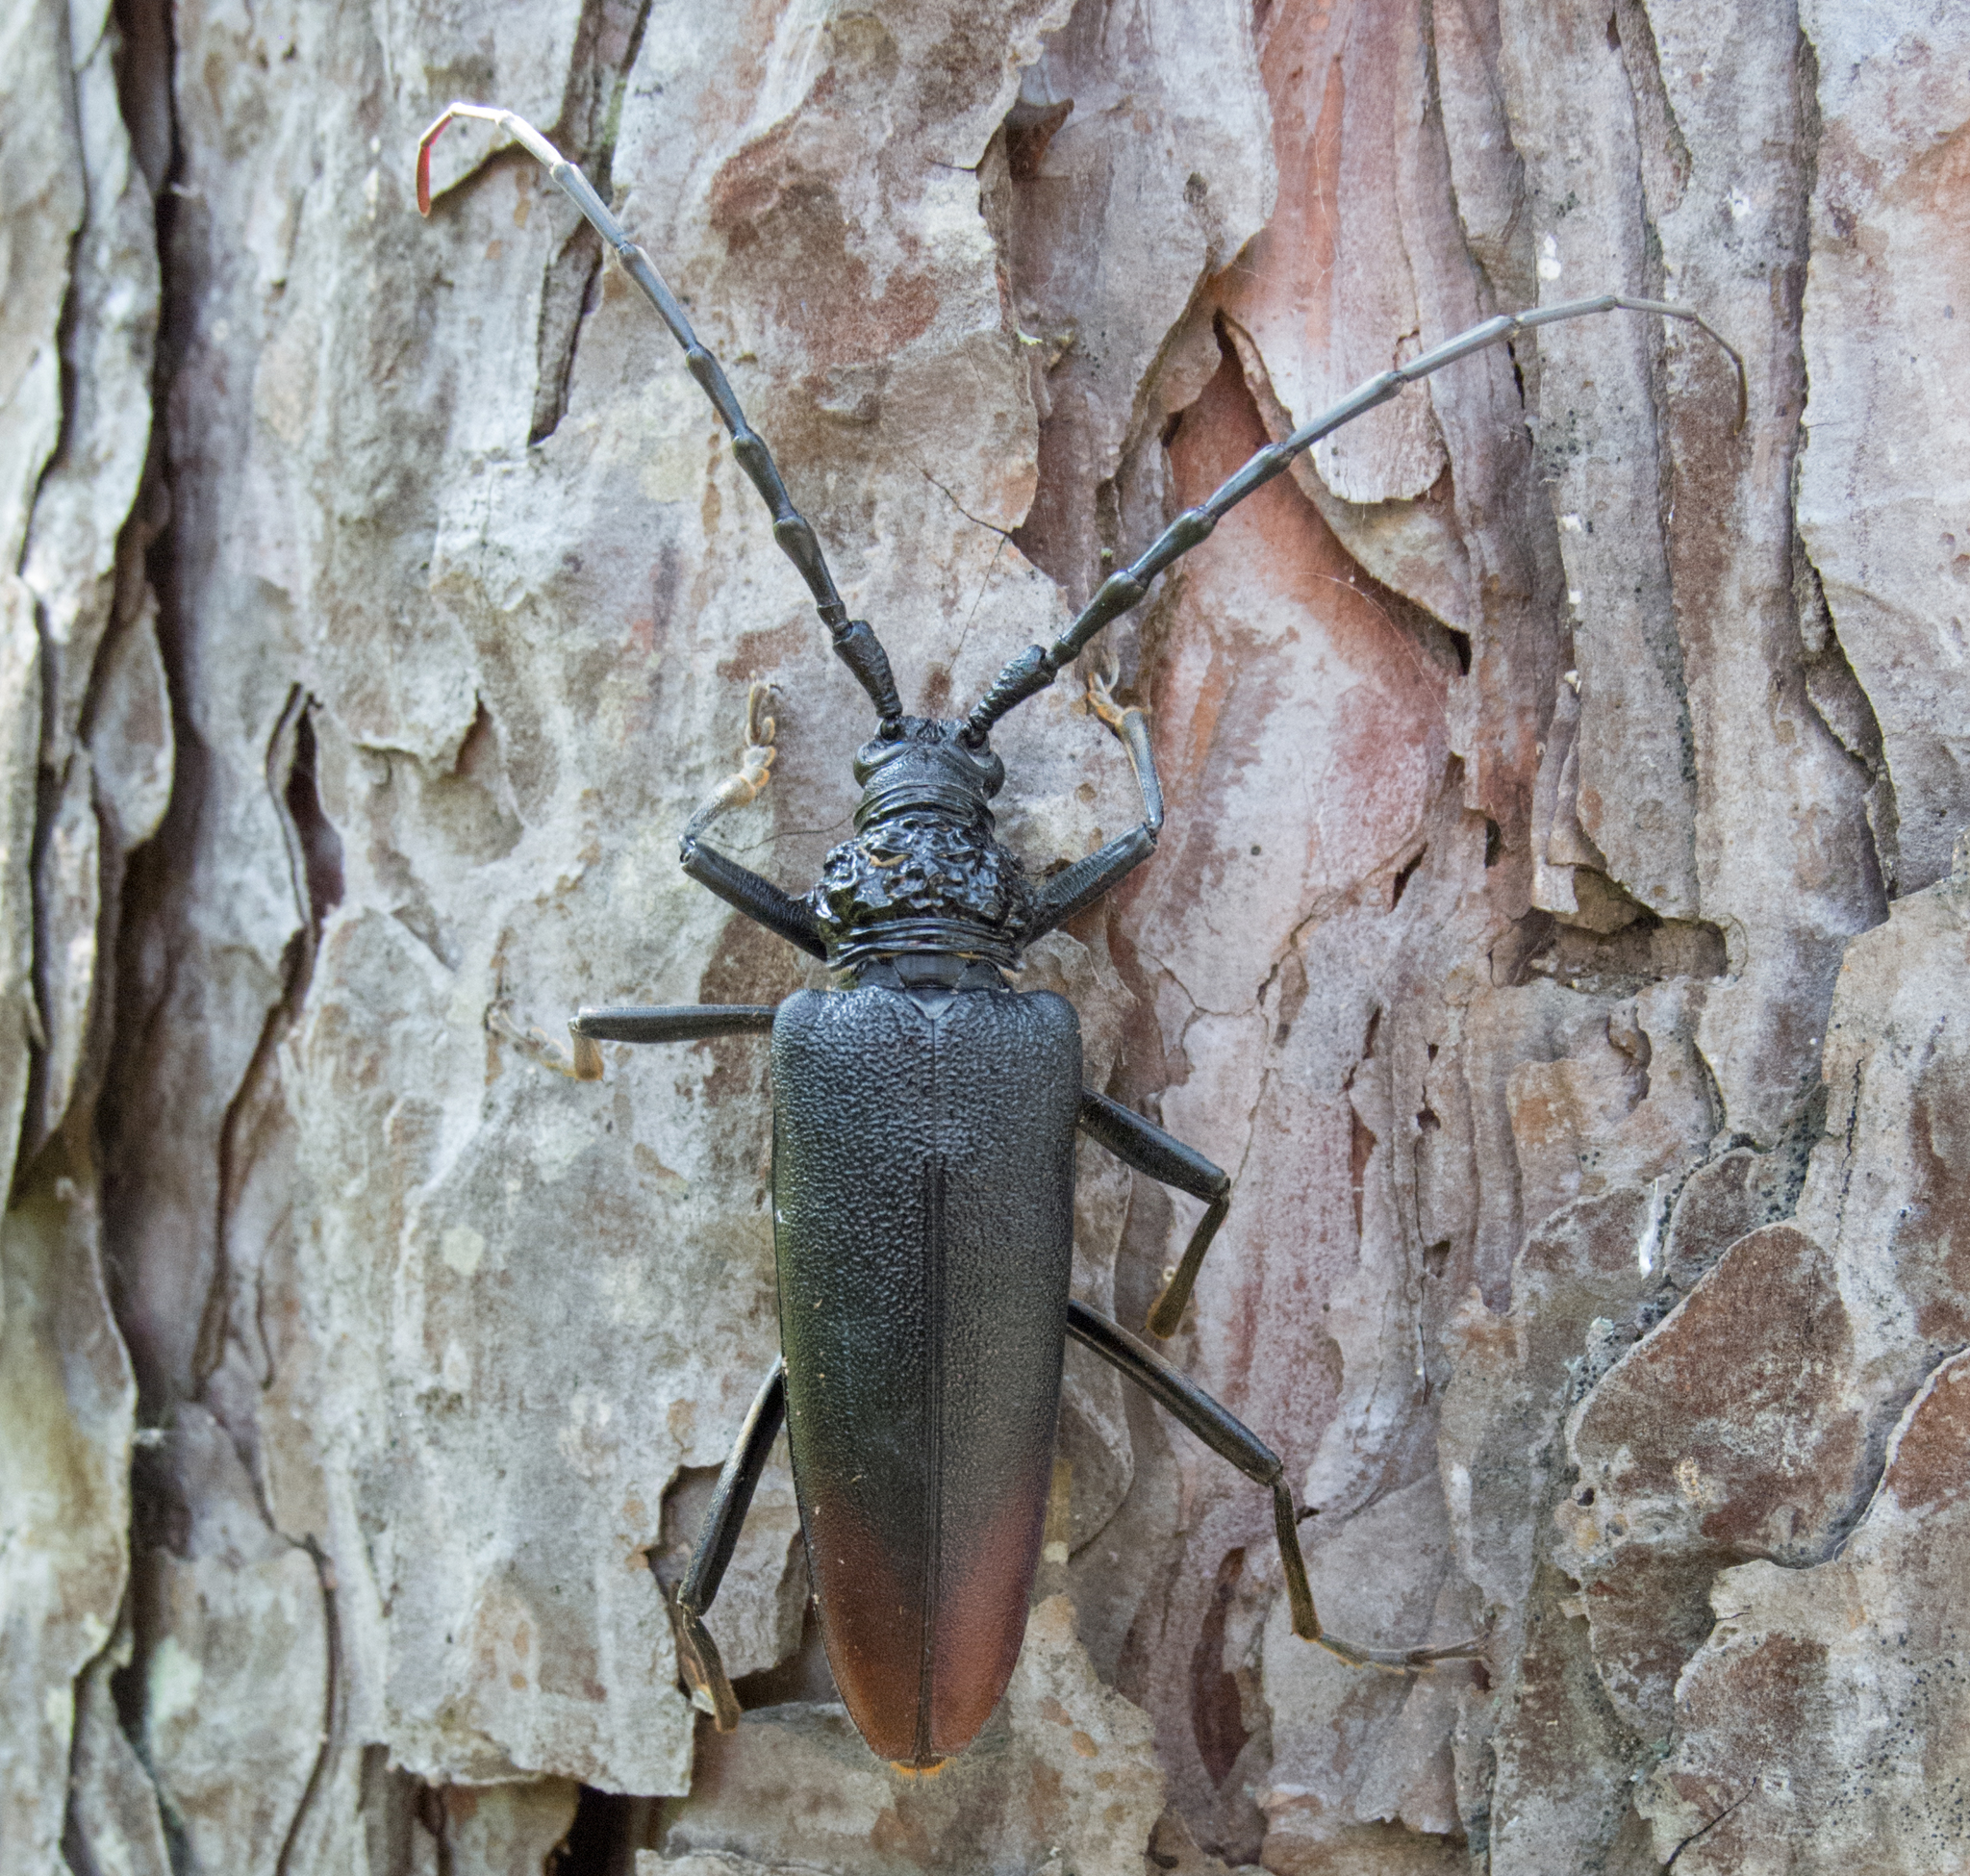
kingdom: Animalia
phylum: Arthropoda
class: Insecta
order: Coleoptera
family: Cerambycidae
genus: Cerambyx
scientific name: Cerambyx cerdo
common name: Cerambyx longicorn
